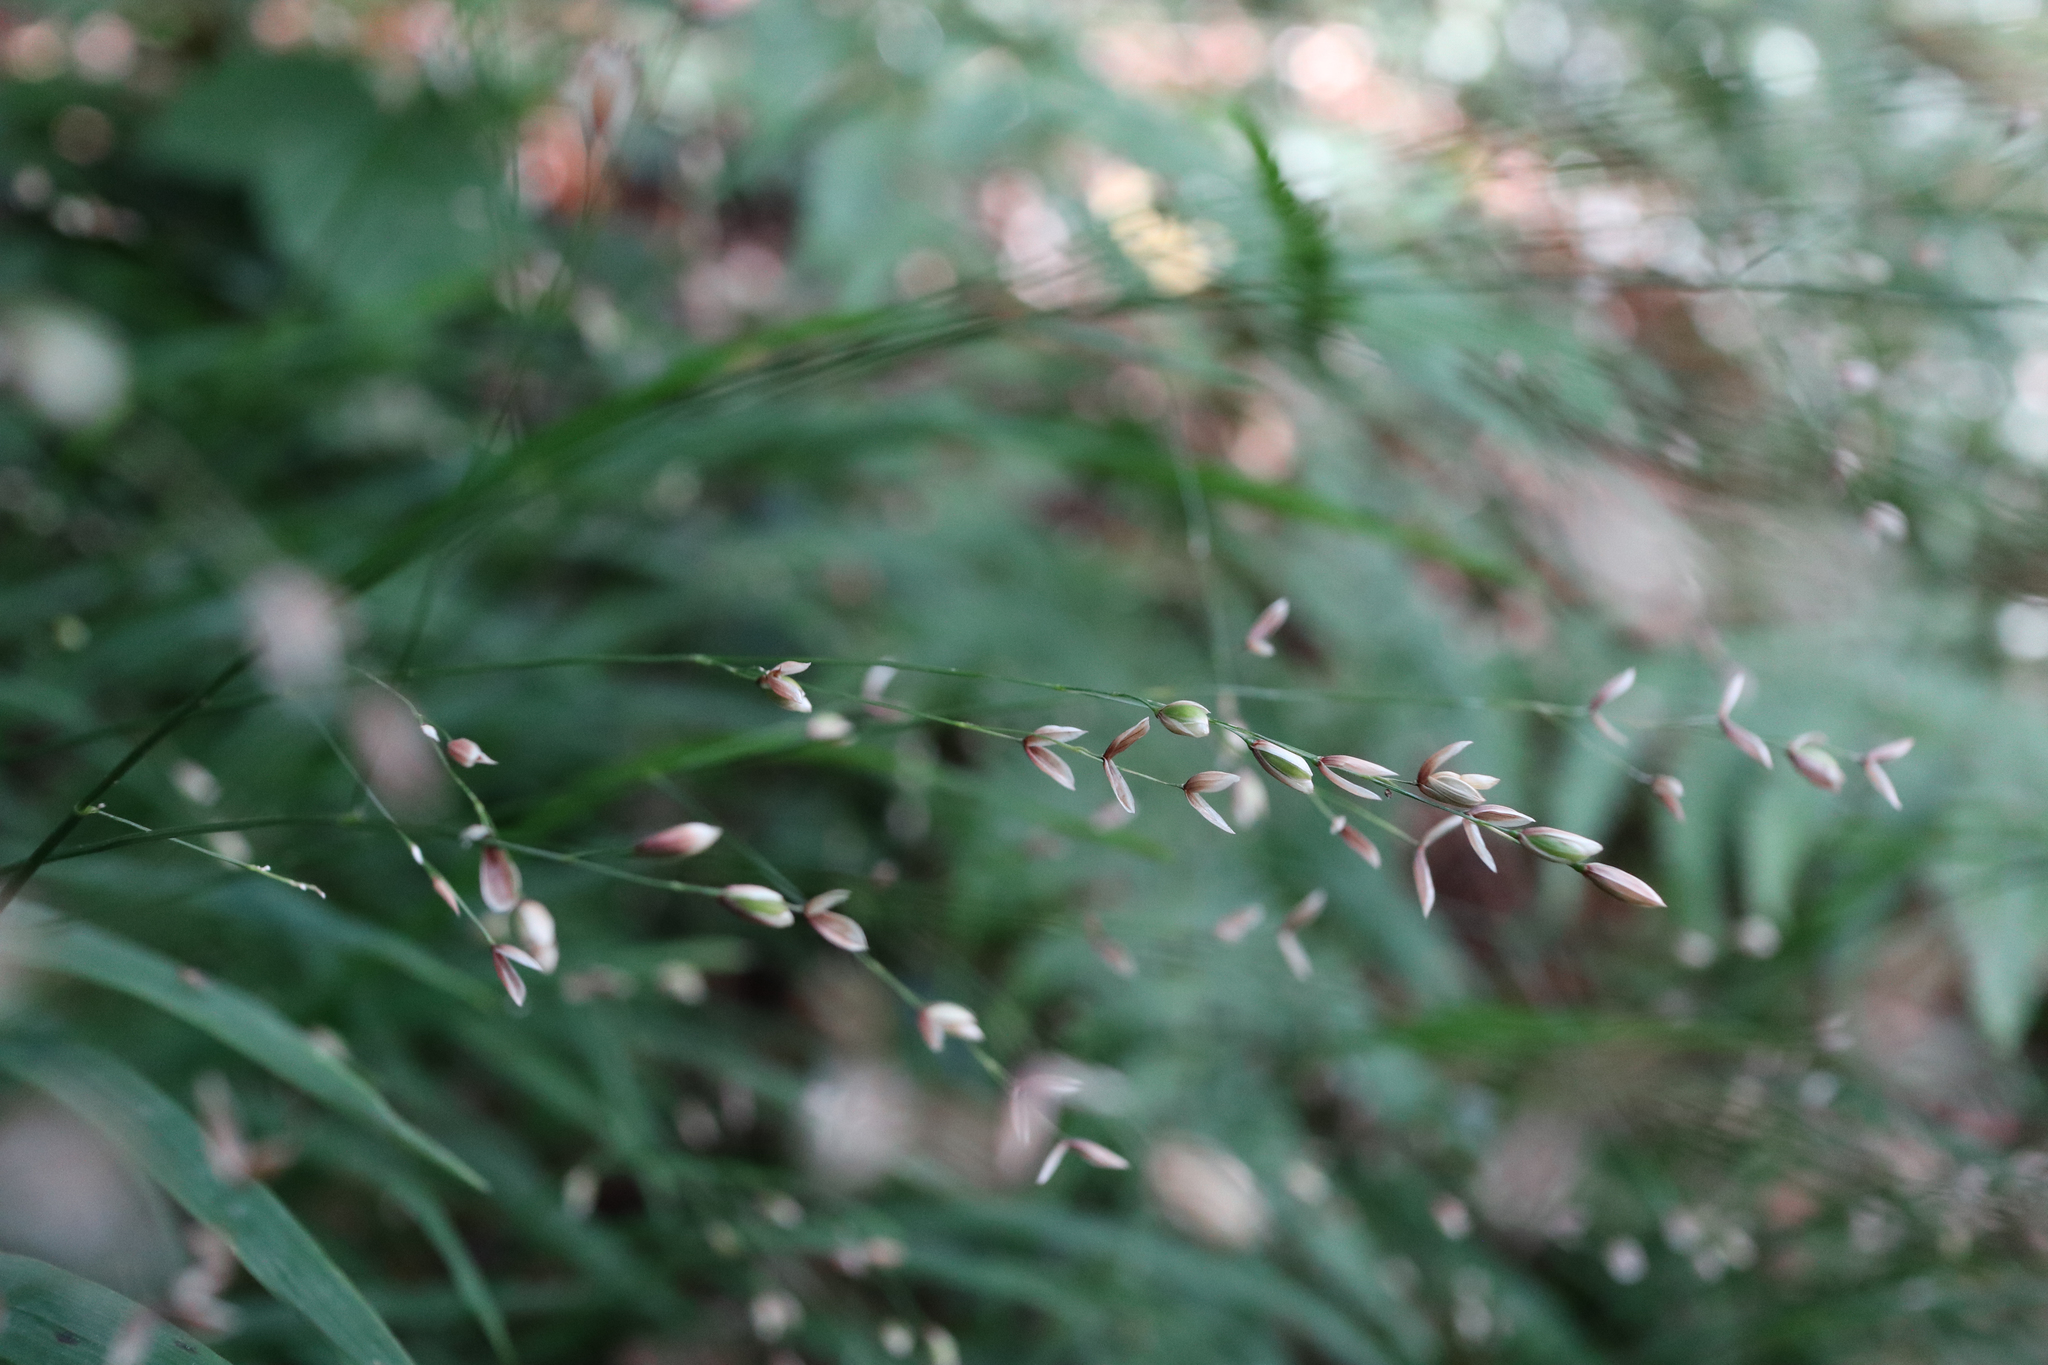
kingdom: Plantae
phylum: Tracheophyta
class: Liliopsida
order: Poales
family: Poaceae
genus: Melica
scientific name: Melica uniflora
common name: Wood melick
